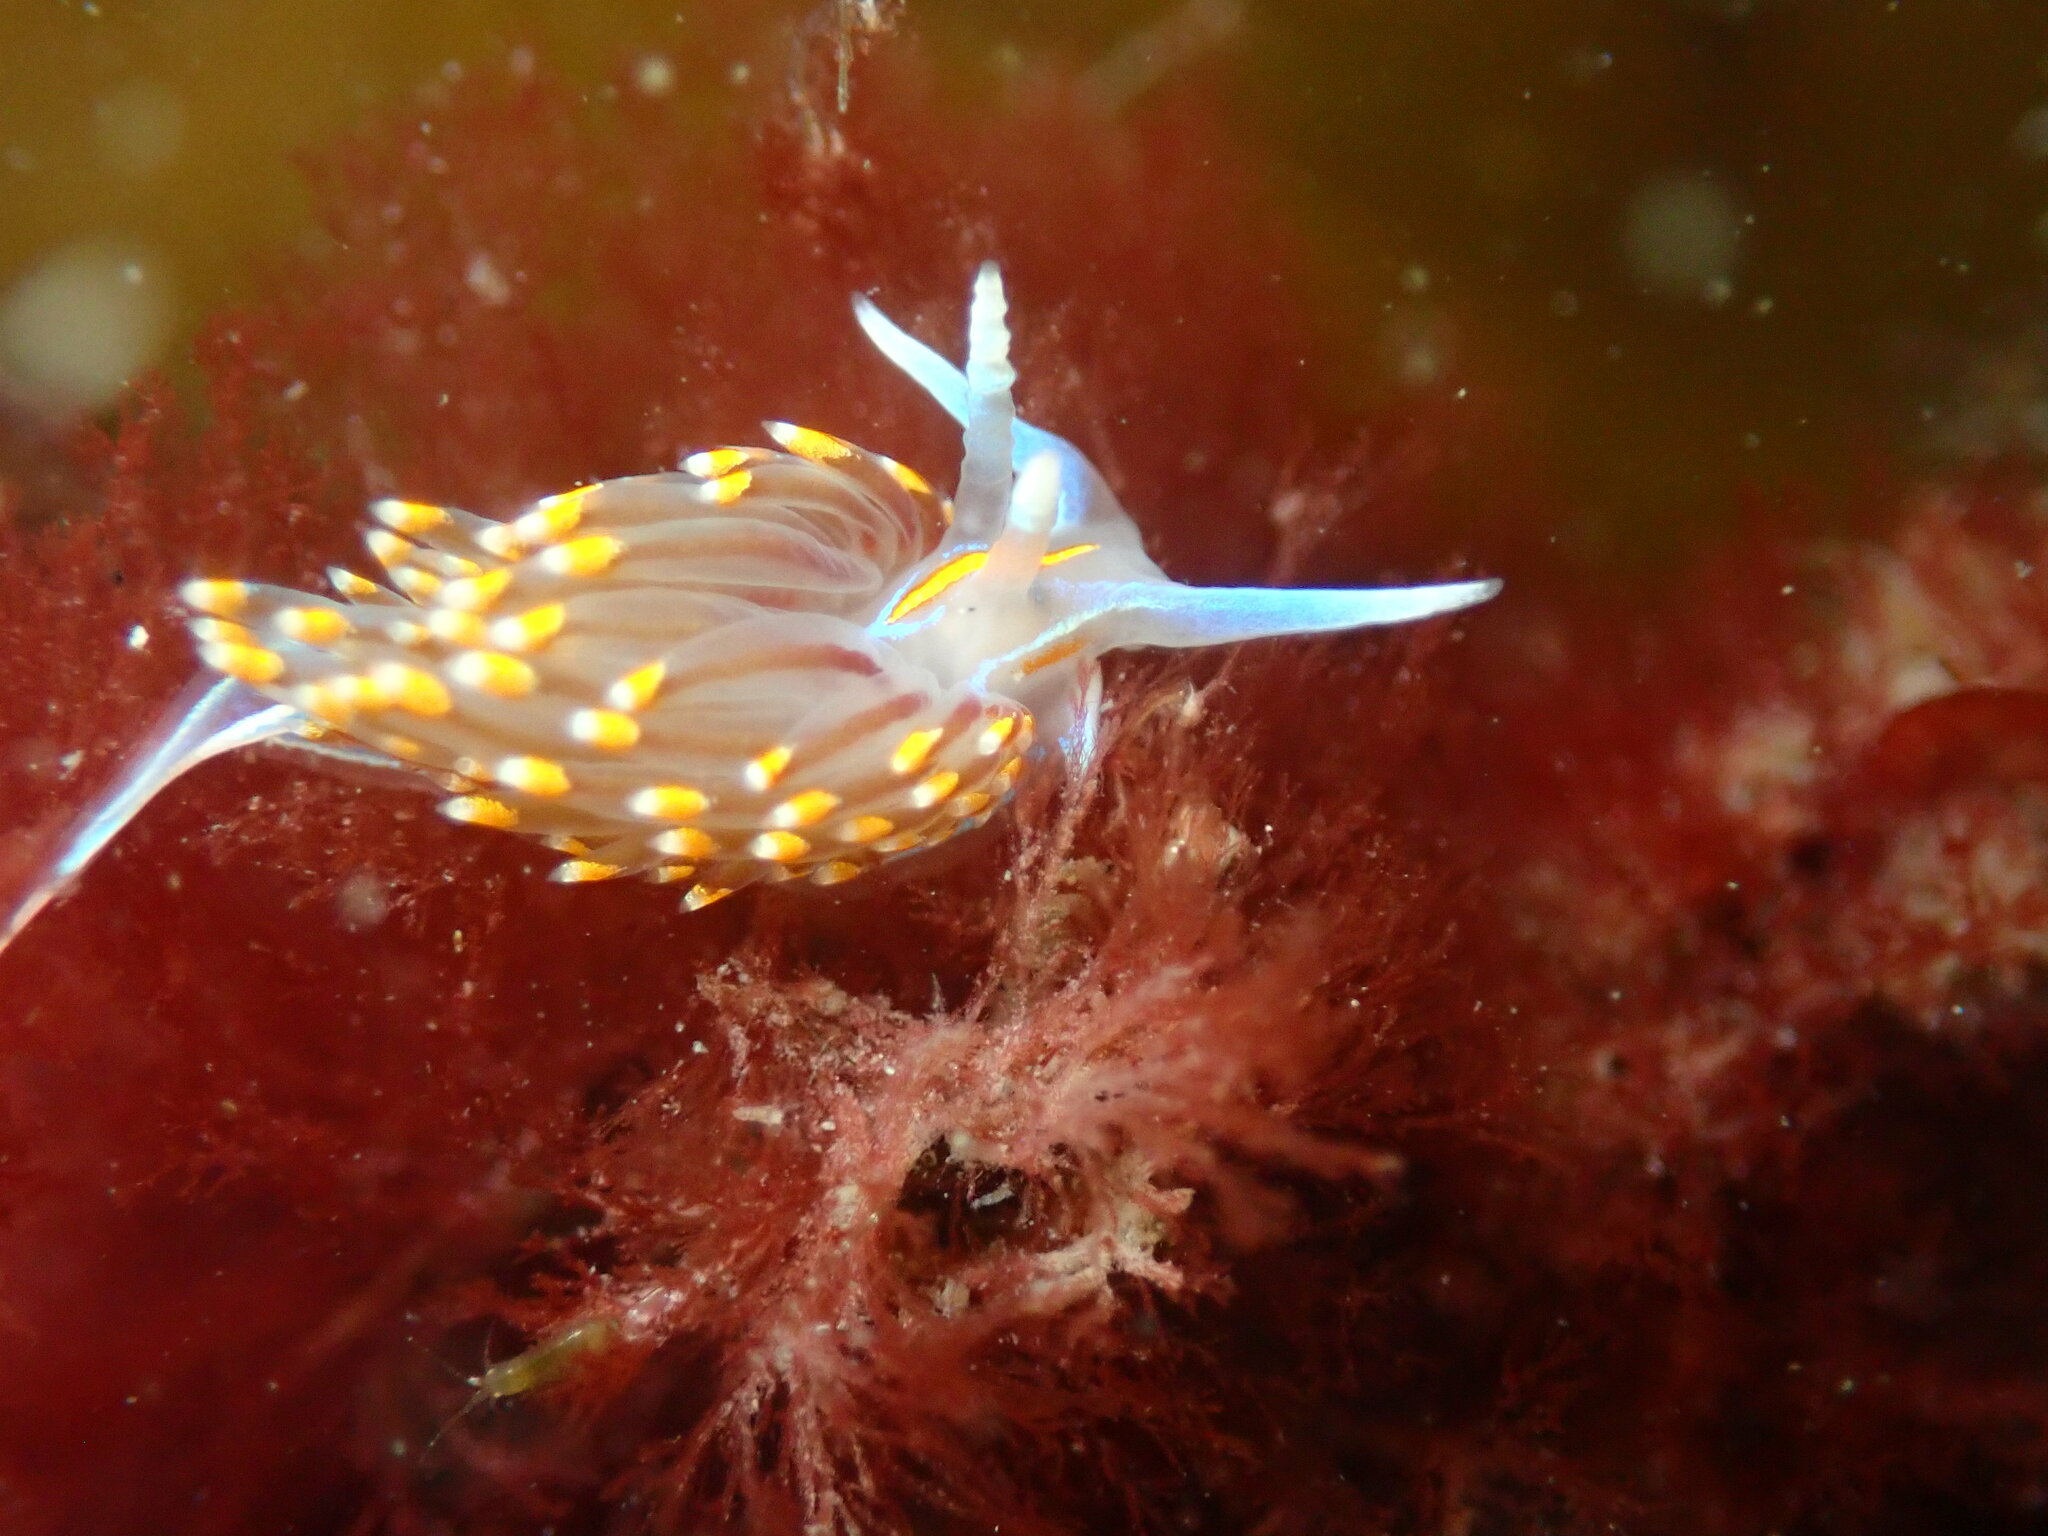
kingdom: Animalia
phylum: Mollusca
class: Gastropoda
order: Nudibranchia
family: Myrrhinidae
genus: Hermissenda
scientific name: Hermissenda opalescens
